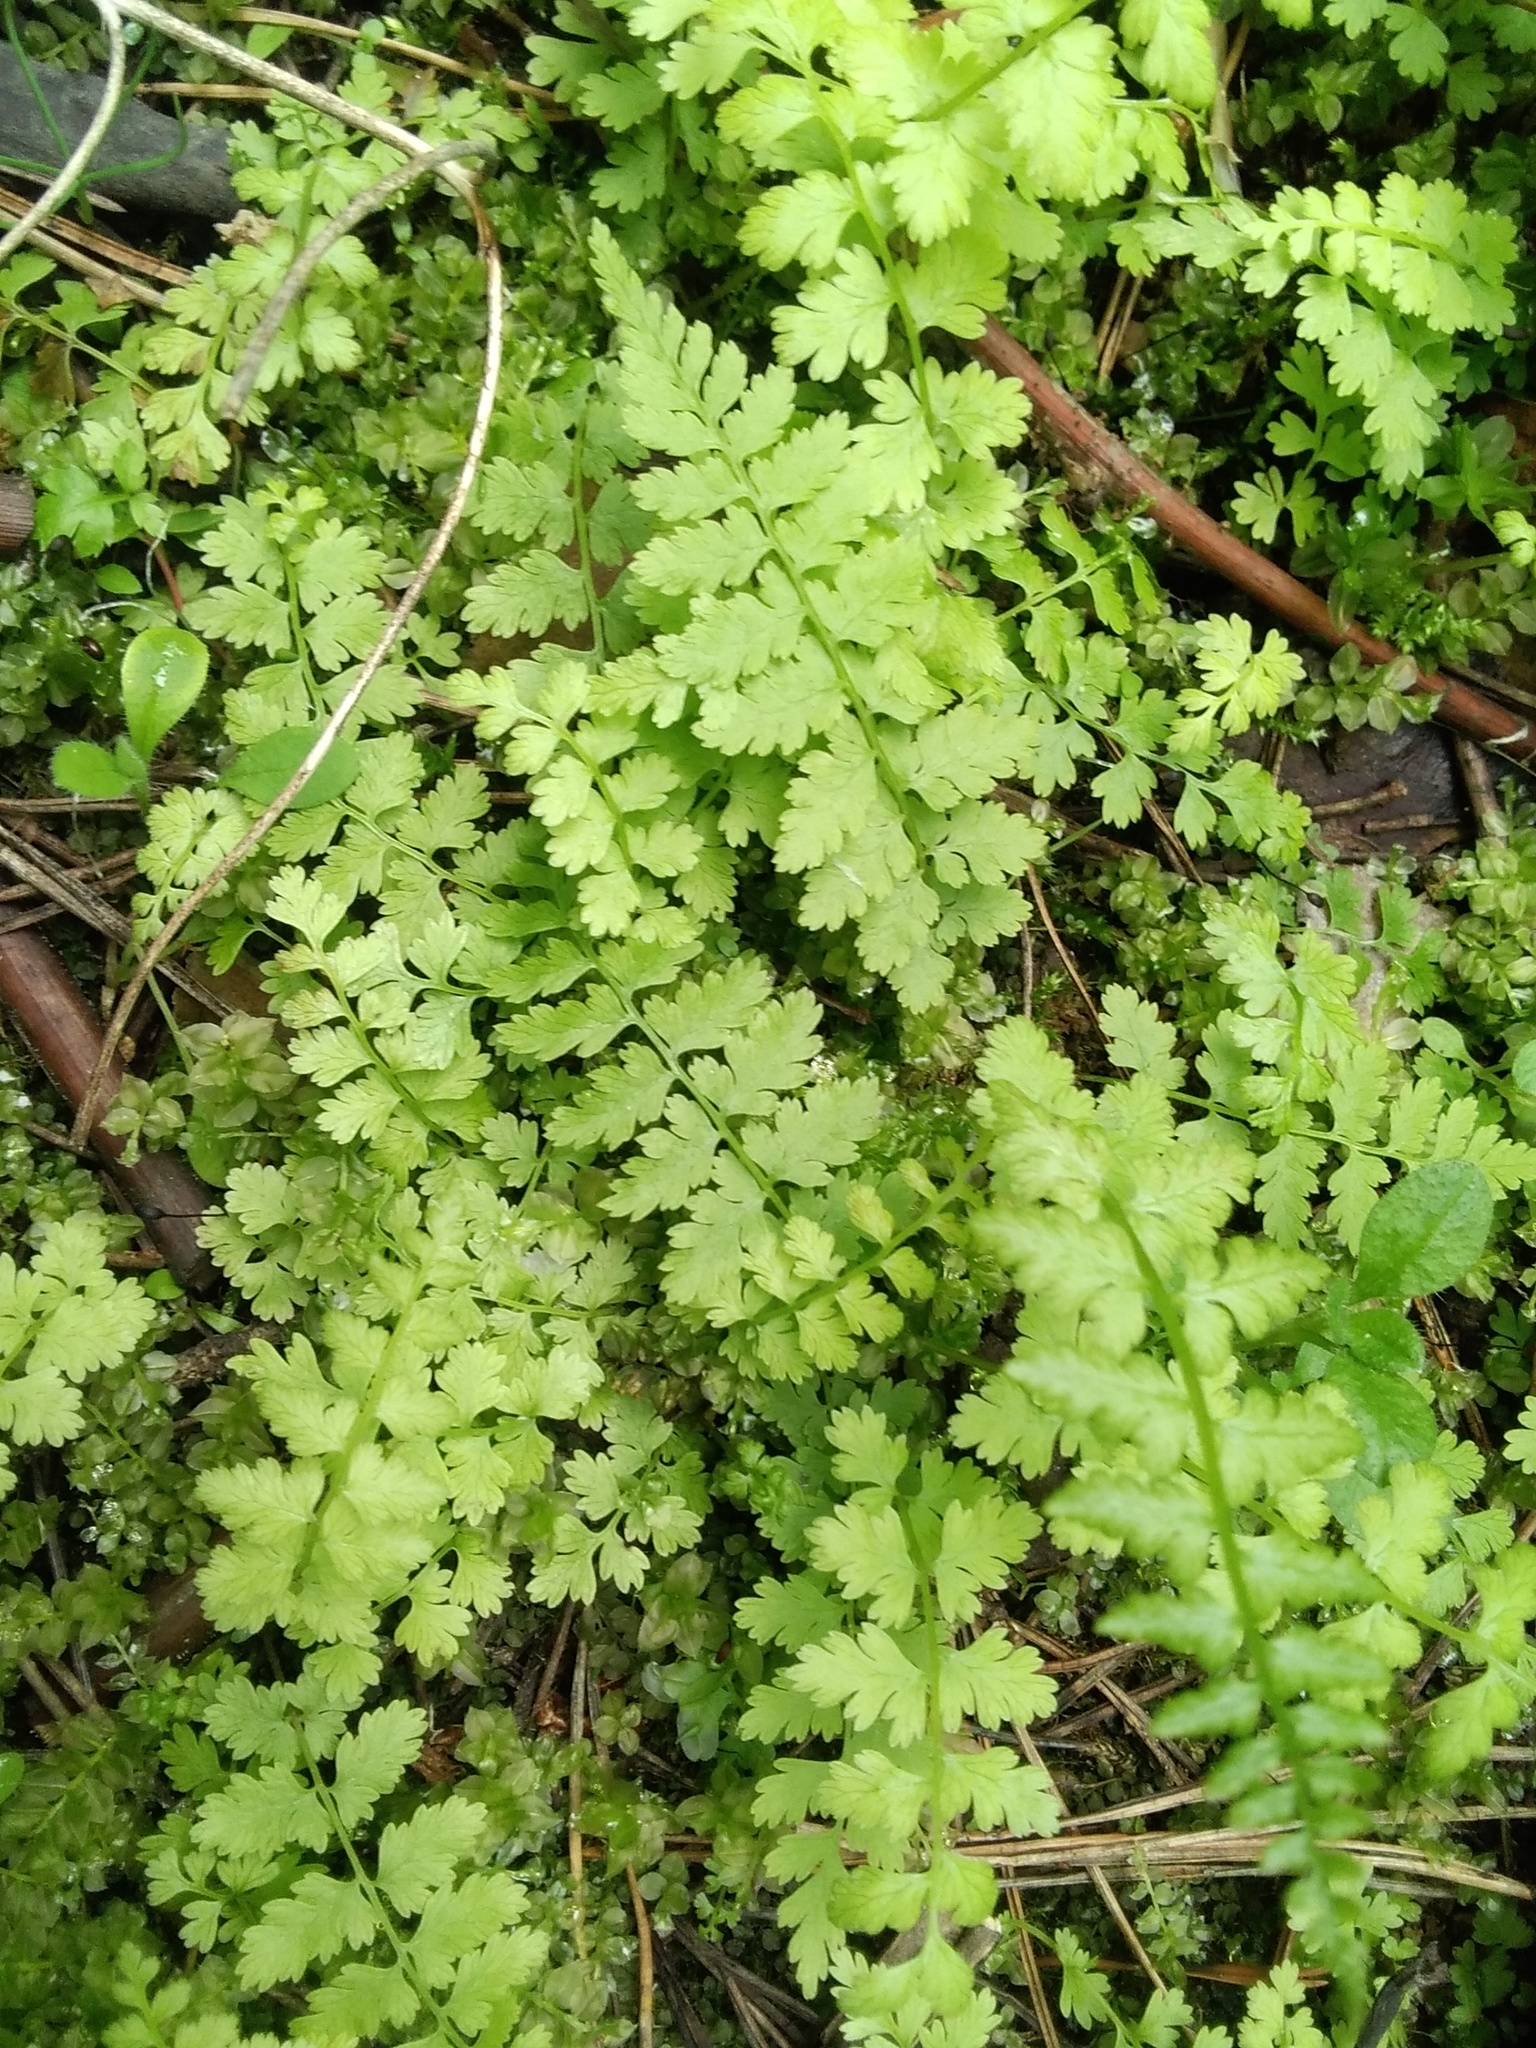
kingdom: Plantae
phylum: Tracheophyta
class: Polypodiopsida
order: Polypodiales
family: Cystopteridaceae
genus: Cystopteris
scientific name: Cystopteris fragilis
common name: Brittle bladder fern
